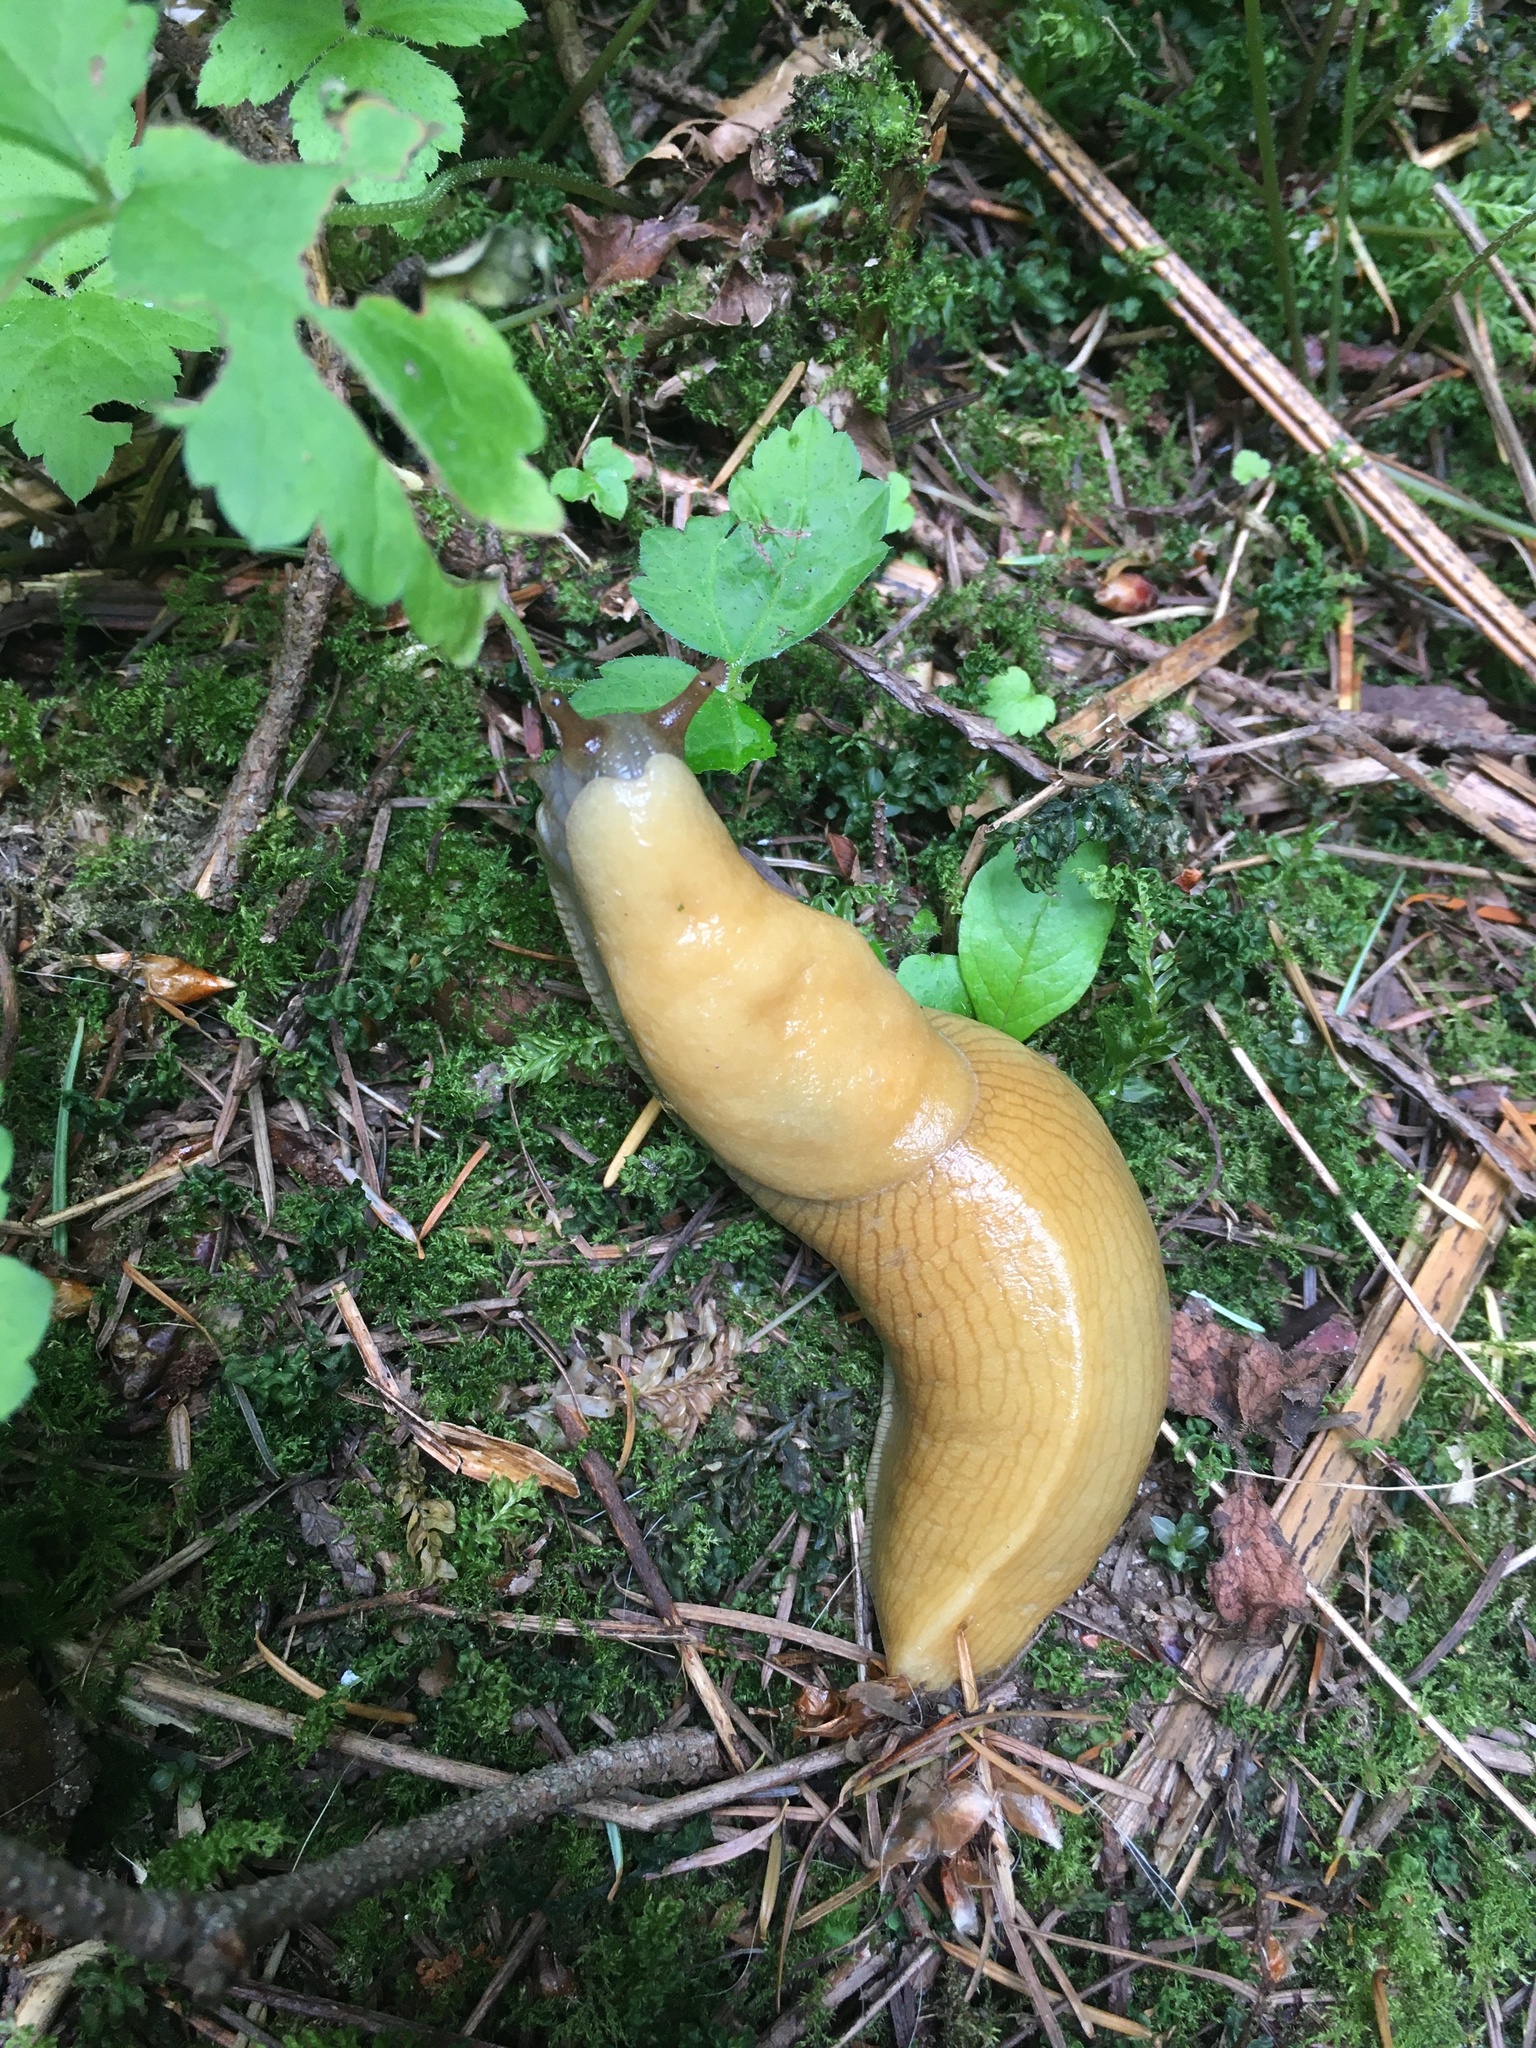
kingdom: Animalia
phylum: Mollusca
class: Gastropoda
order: Stylommatophora
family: Ariolimacidae
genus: Ariolimax
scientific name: Ariolimax columbianus
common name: Pacific banana slug
